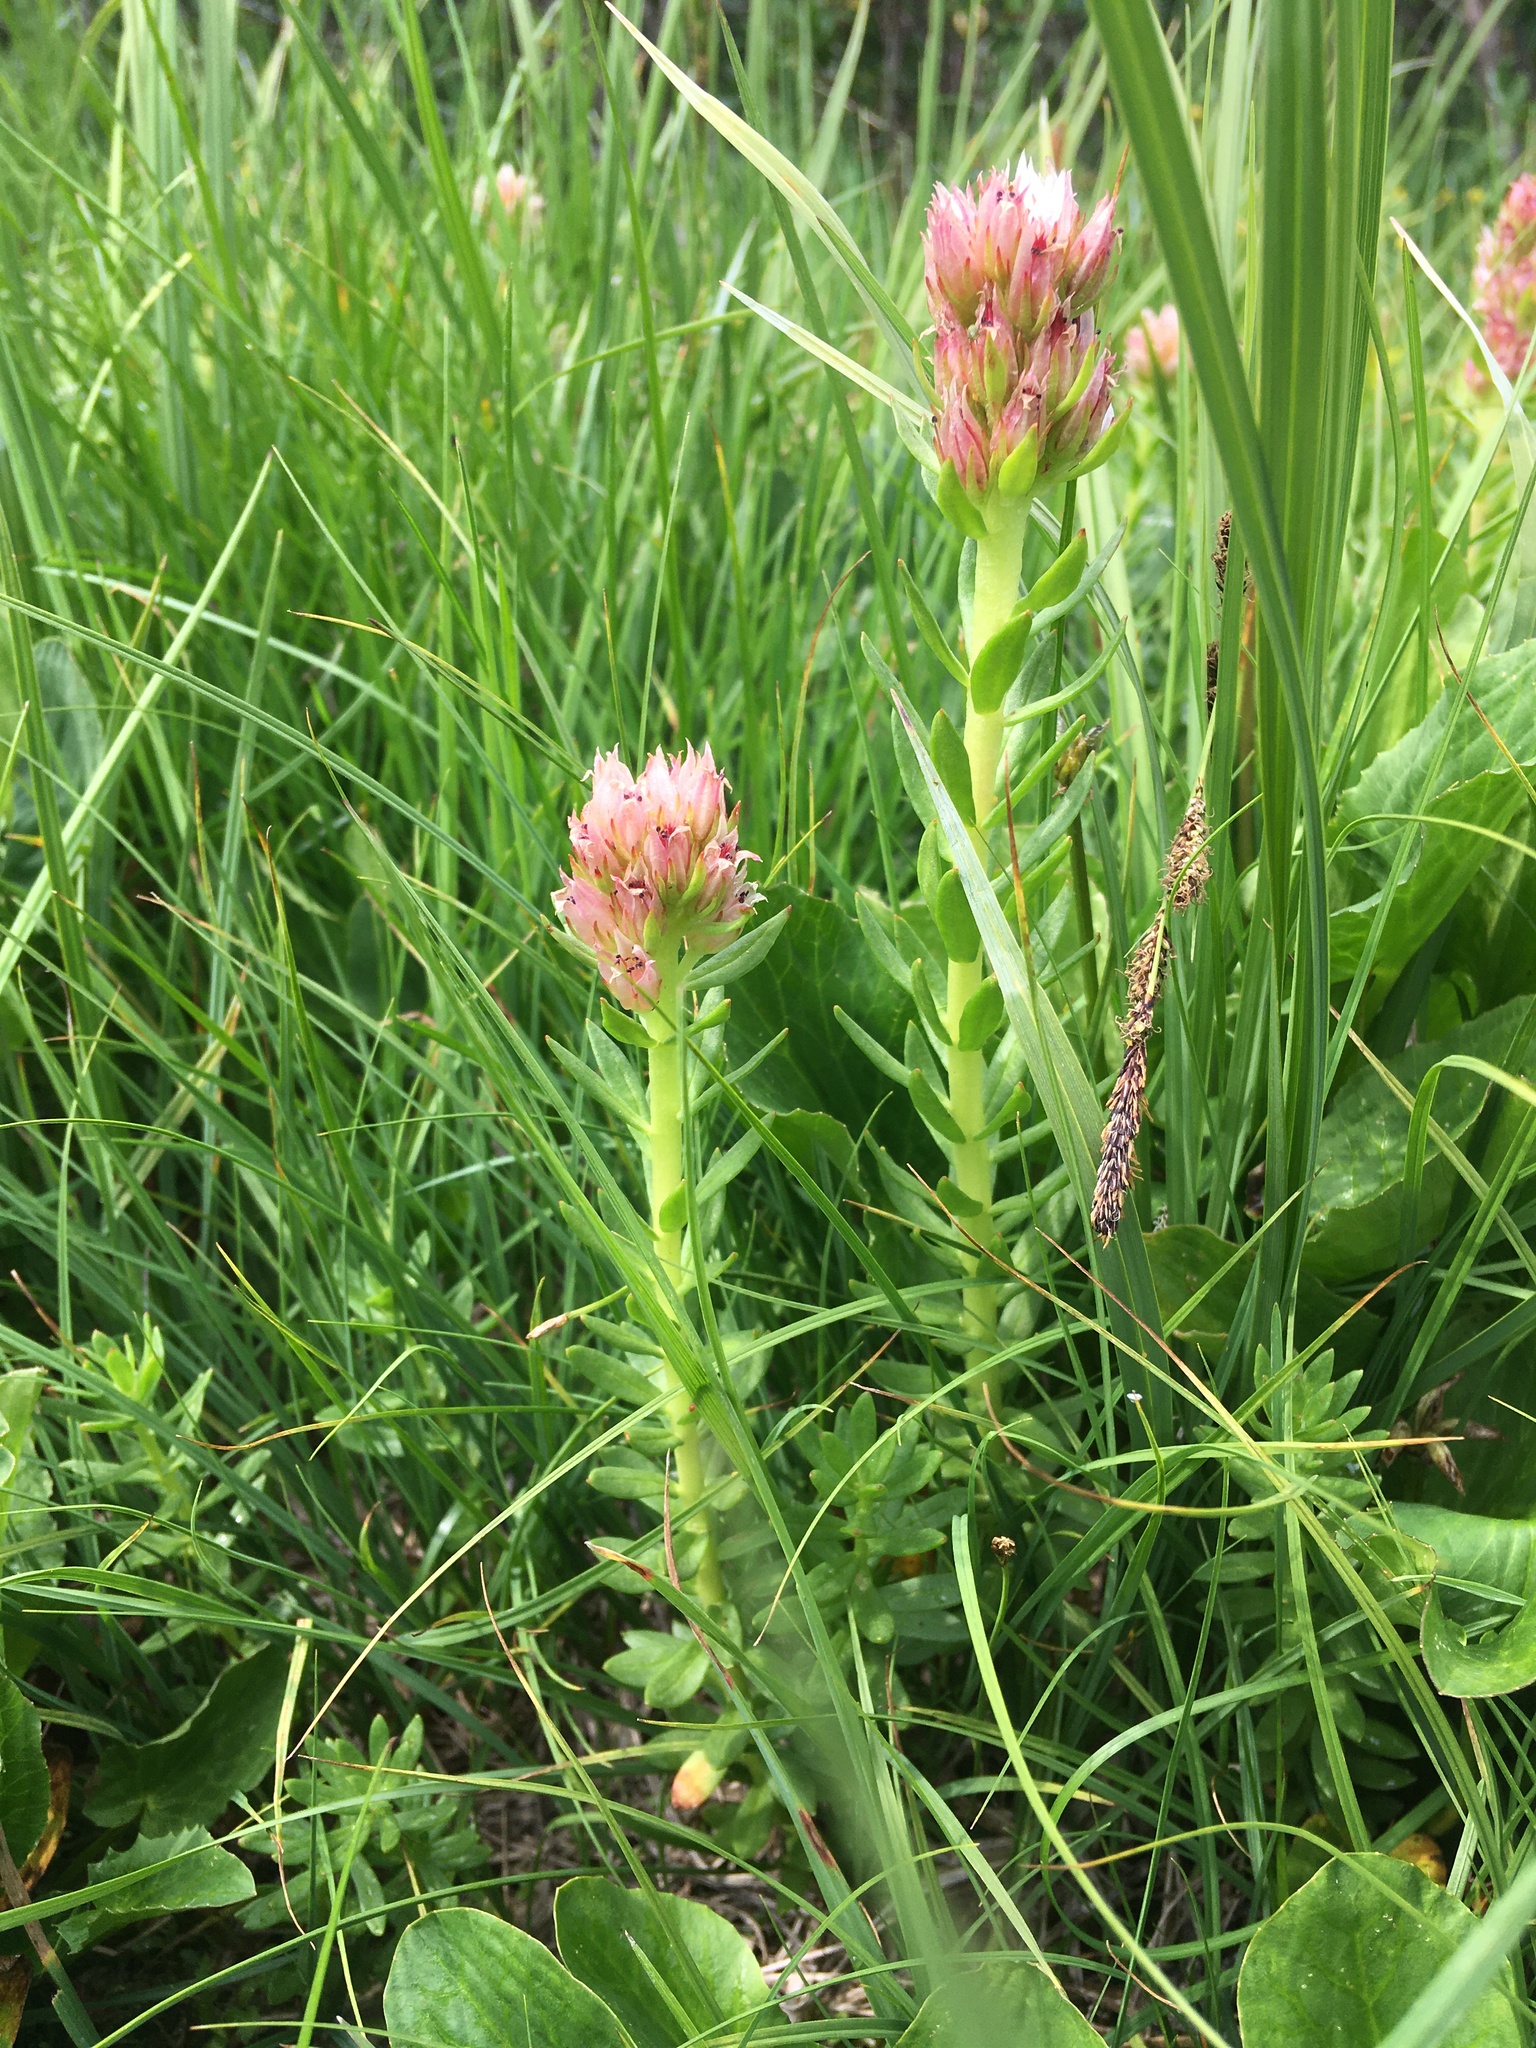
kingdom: Plantae
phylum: Tracheophyta
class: Magnoliopsida
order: Saxifragales
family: Crassulaceae
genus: Rhodiola
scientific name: Rhodiola rhodantha
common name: Red orpine
